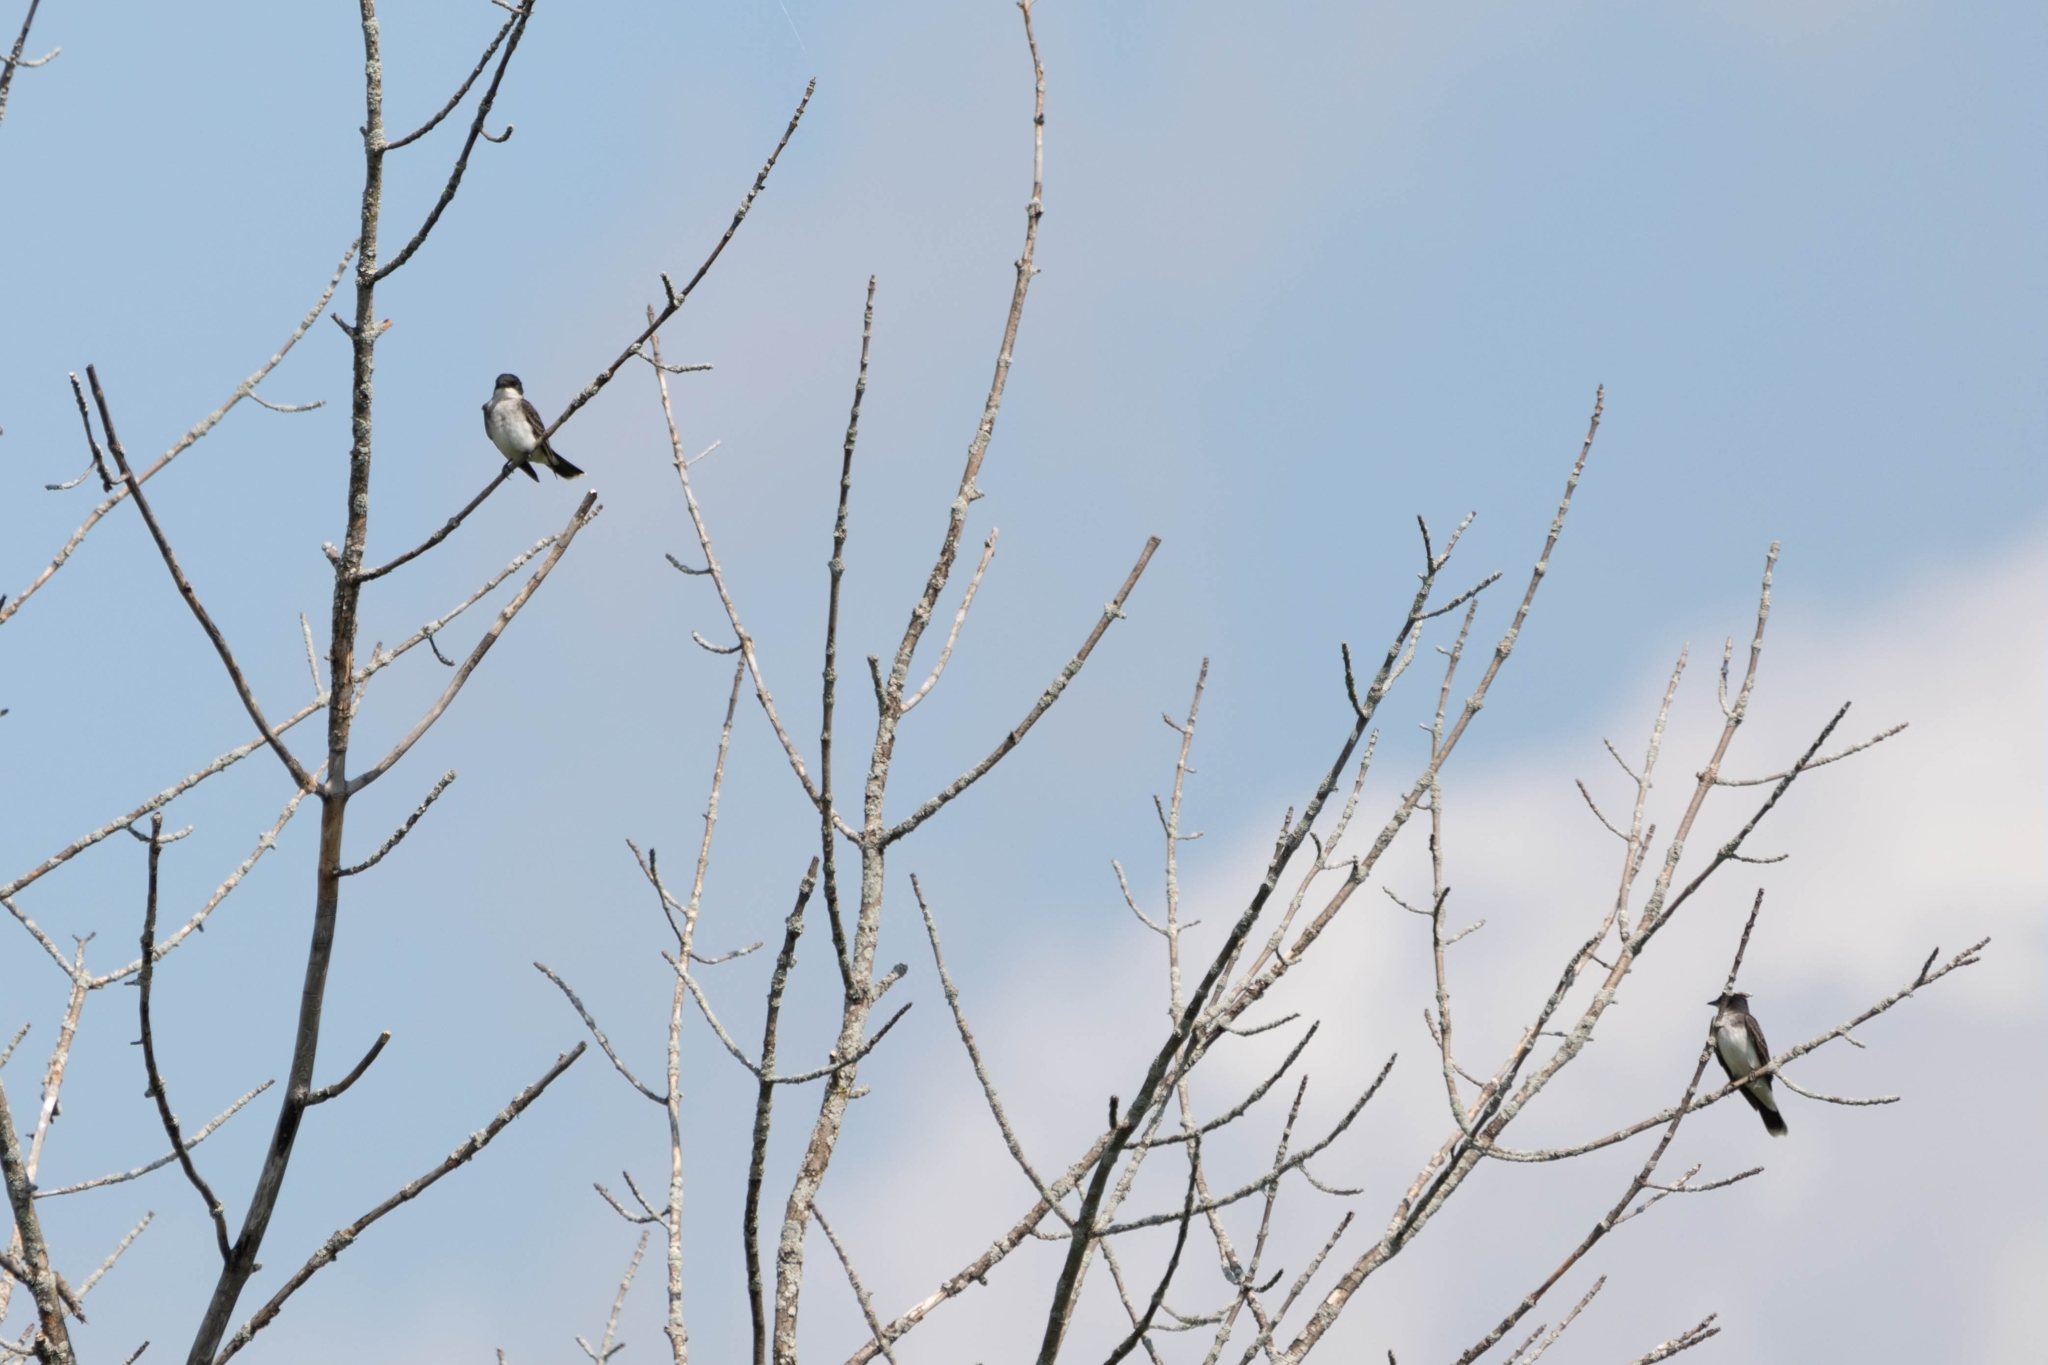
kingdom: Animalia
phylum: Chordata
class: Aves
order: Passeriformes
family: Tyrannidae
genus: Tyrannus
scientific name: Tyrannus tyrannus
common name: Eastern kingbird
